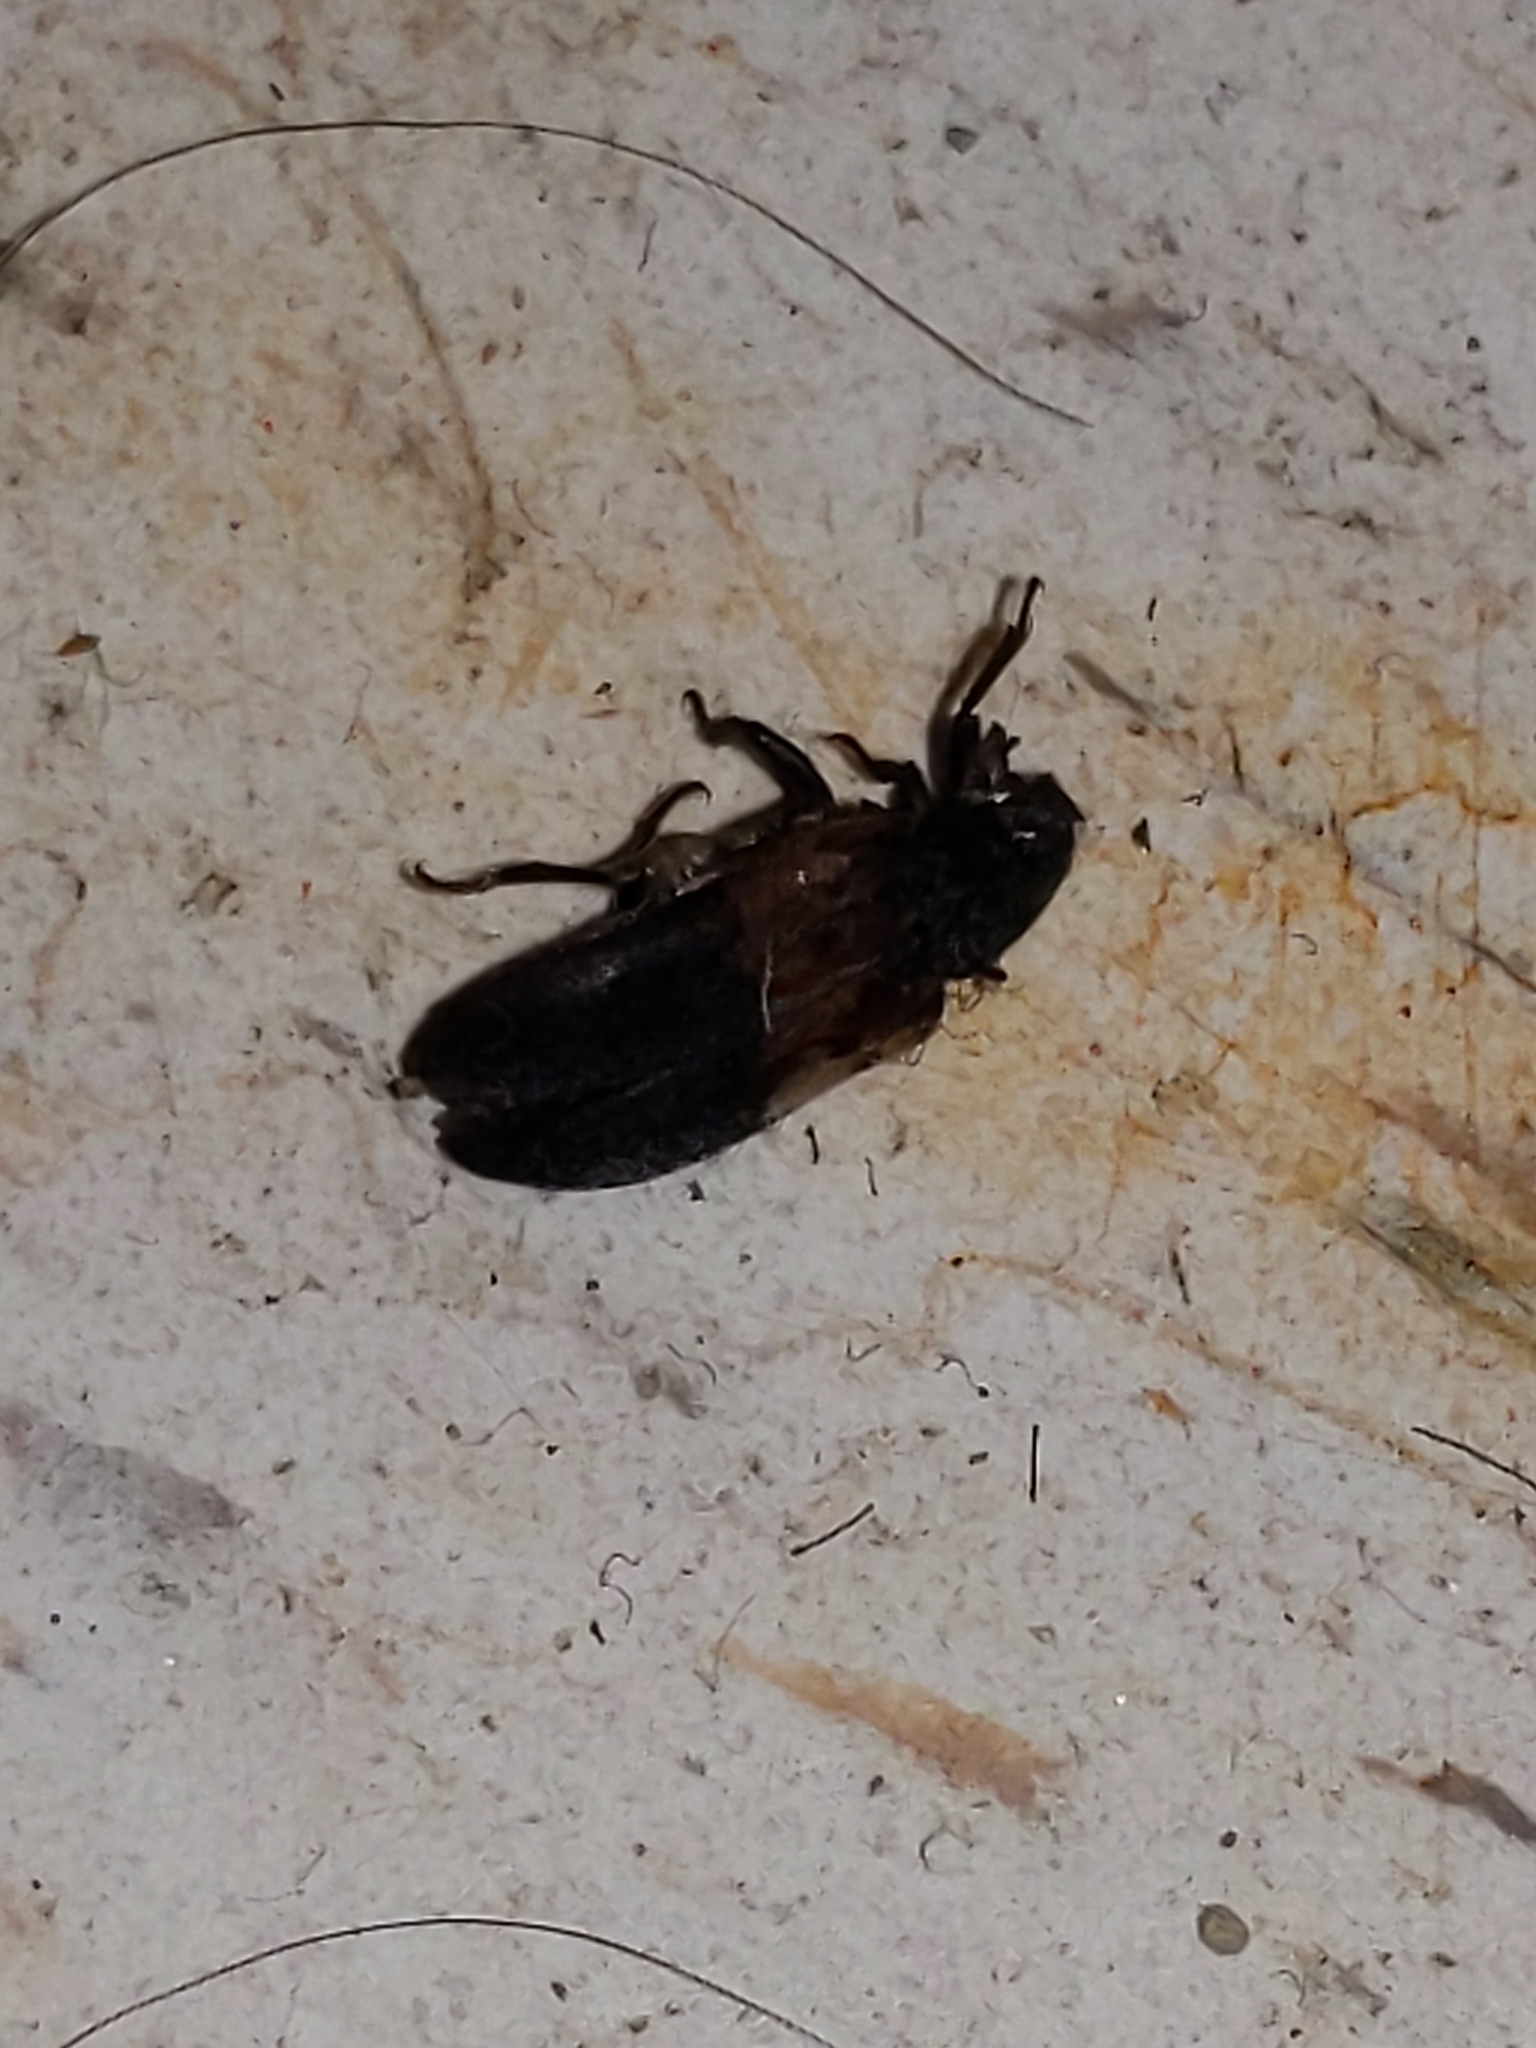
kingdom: Animalia
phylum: Arthropoda
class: Insecta
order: Coleoptera
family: Dermestidae
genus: Dermestes
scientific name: Dermestes lardarius
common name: Larder beetle
